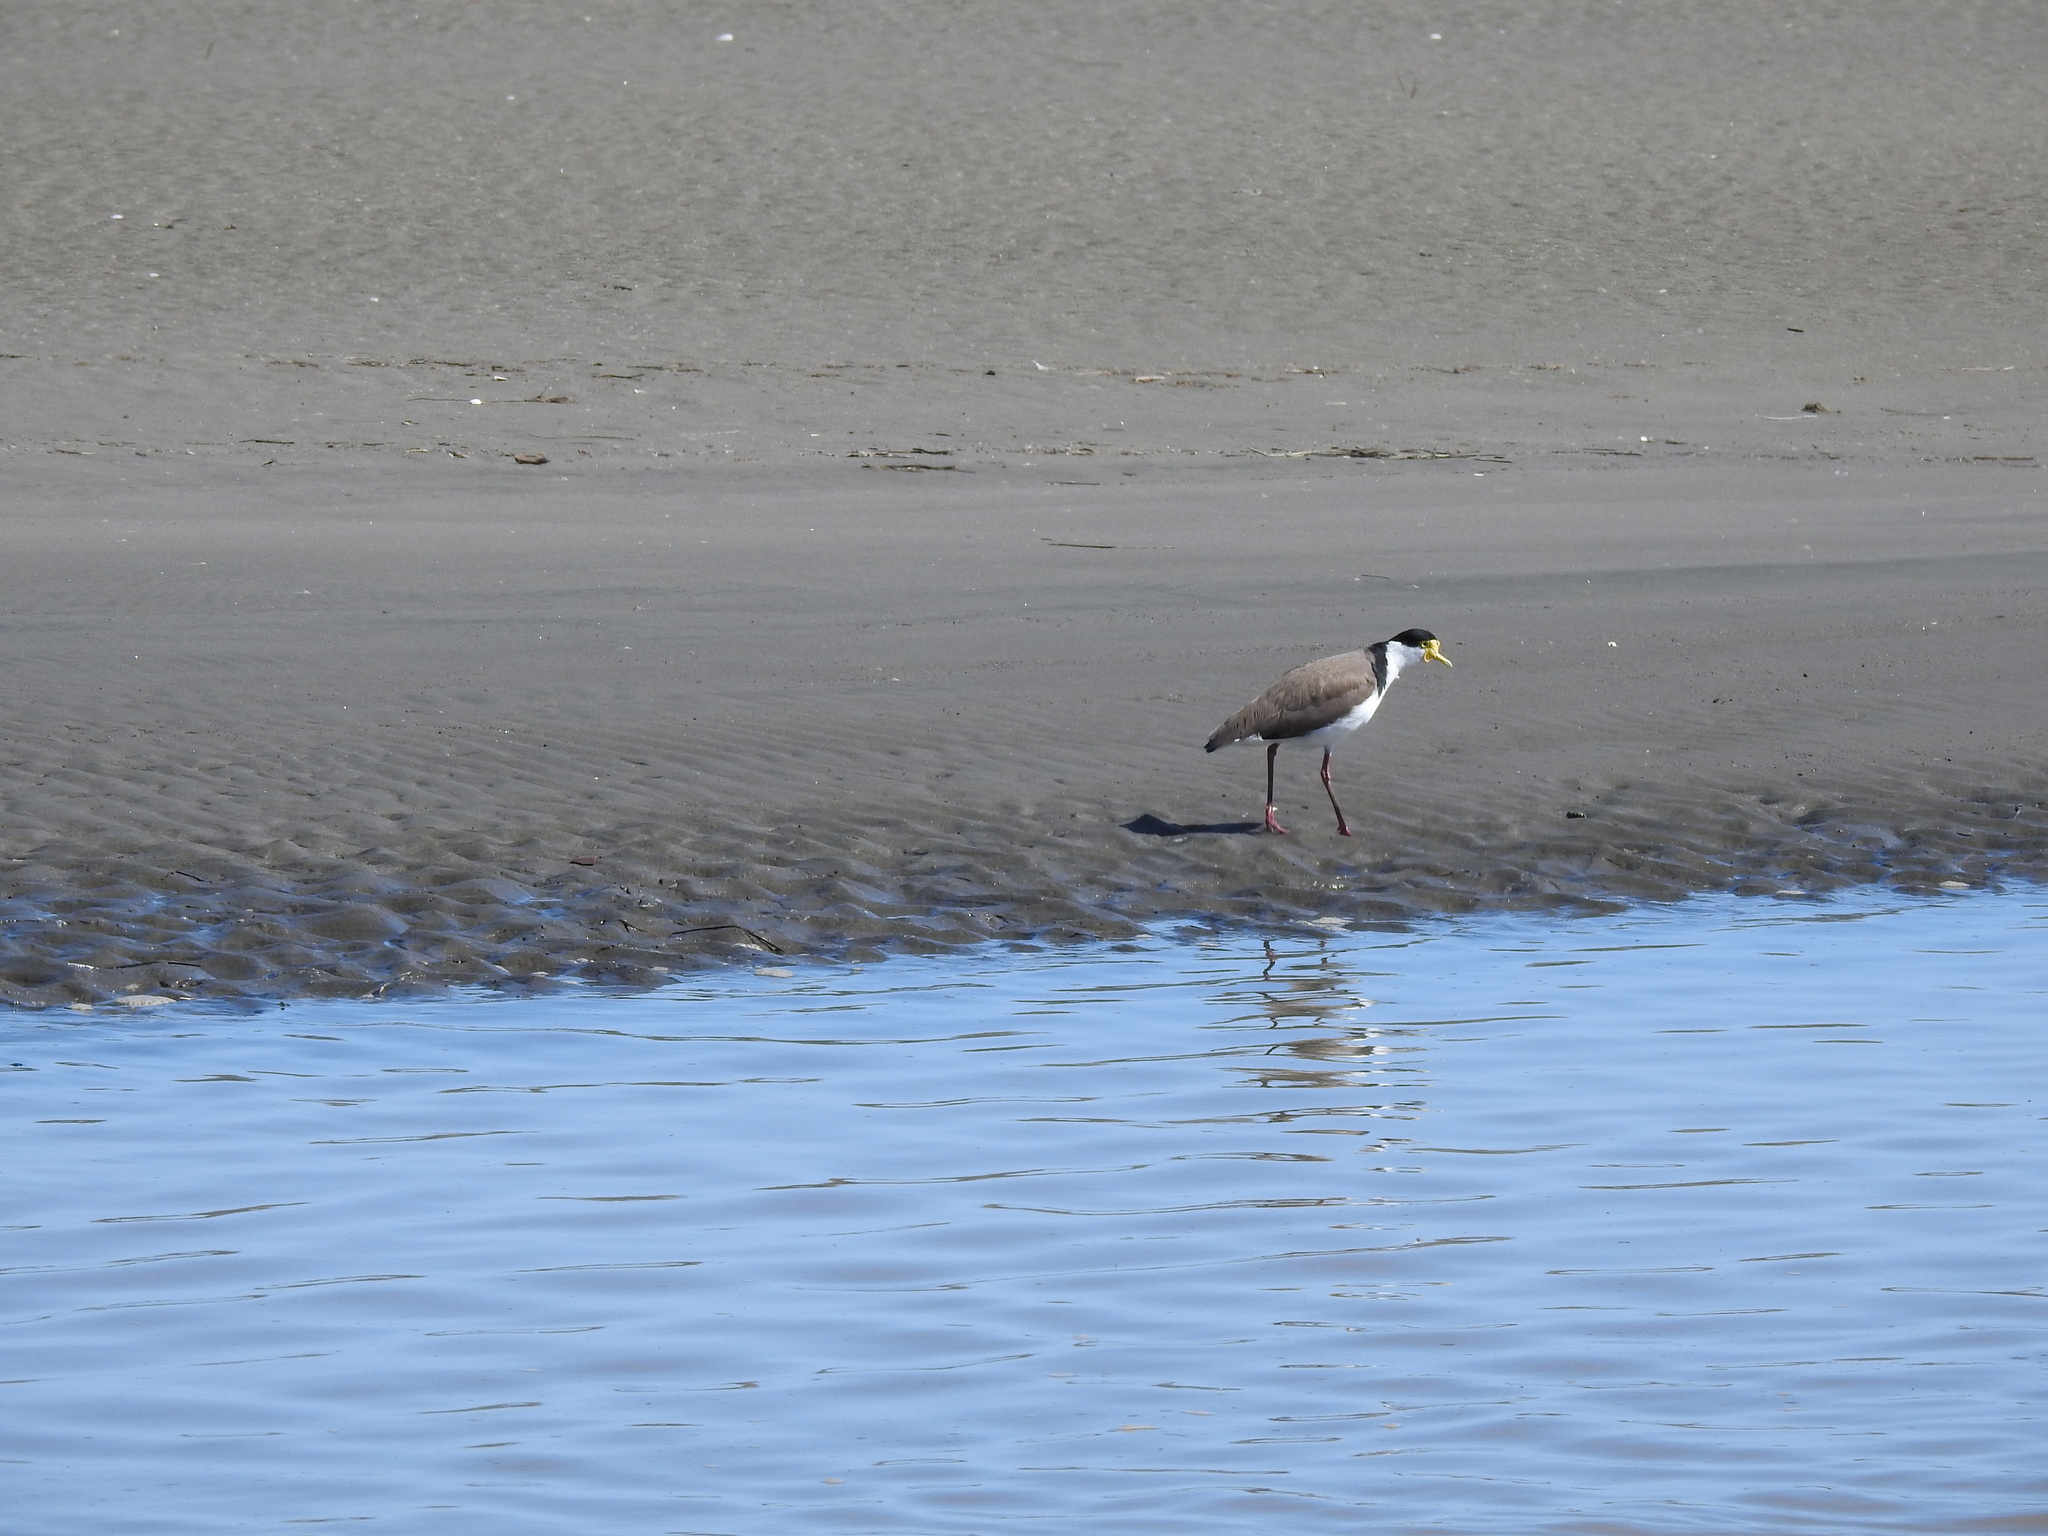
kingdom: Animalia
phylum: Chordata
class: Aves
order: Charadriiformes
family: Charadriidae
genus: Vanellus
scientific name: Vanellus miles
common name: Masked lapwing
